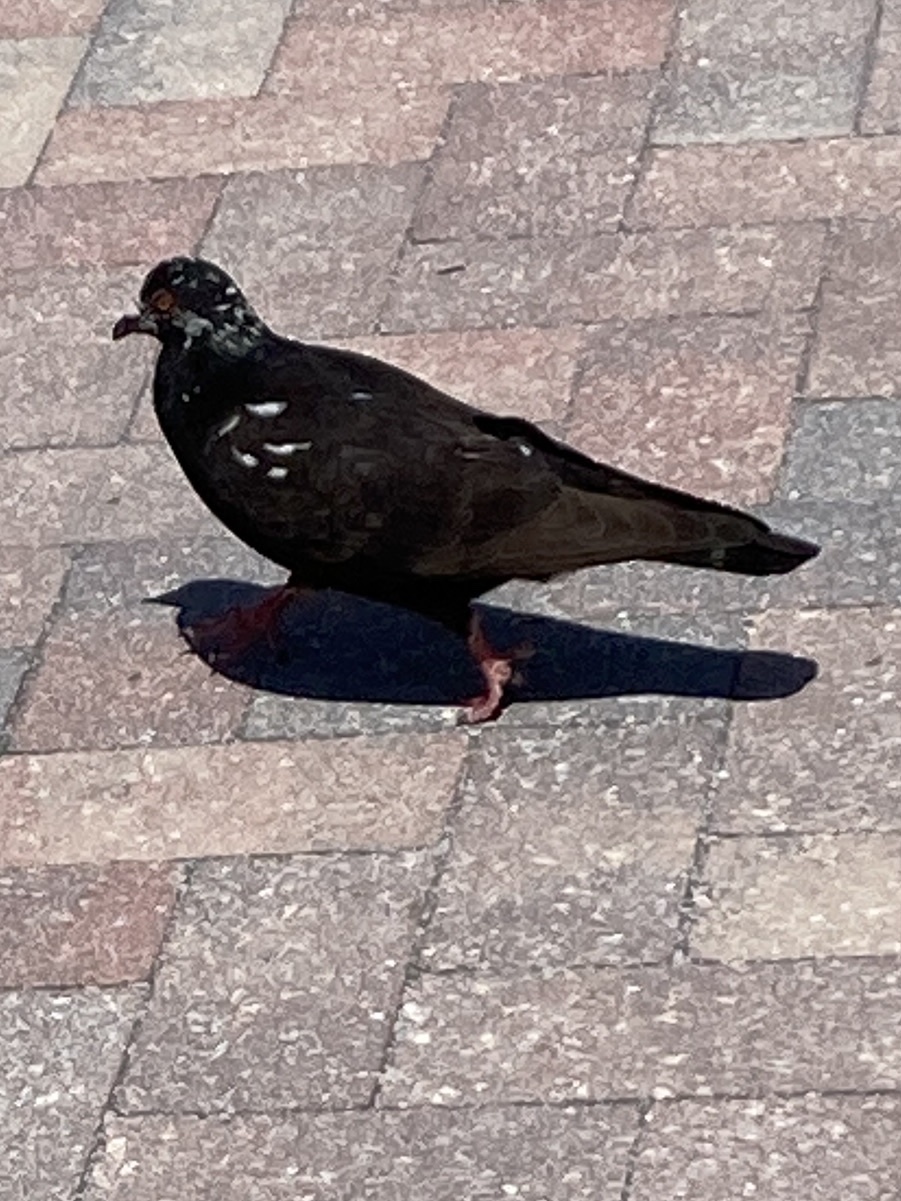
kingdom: Animalia
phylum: Chordata
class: Aves
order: Columbiformes
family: Columbidae
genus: Columba
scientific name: Columba livia
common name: Rock pigeon
